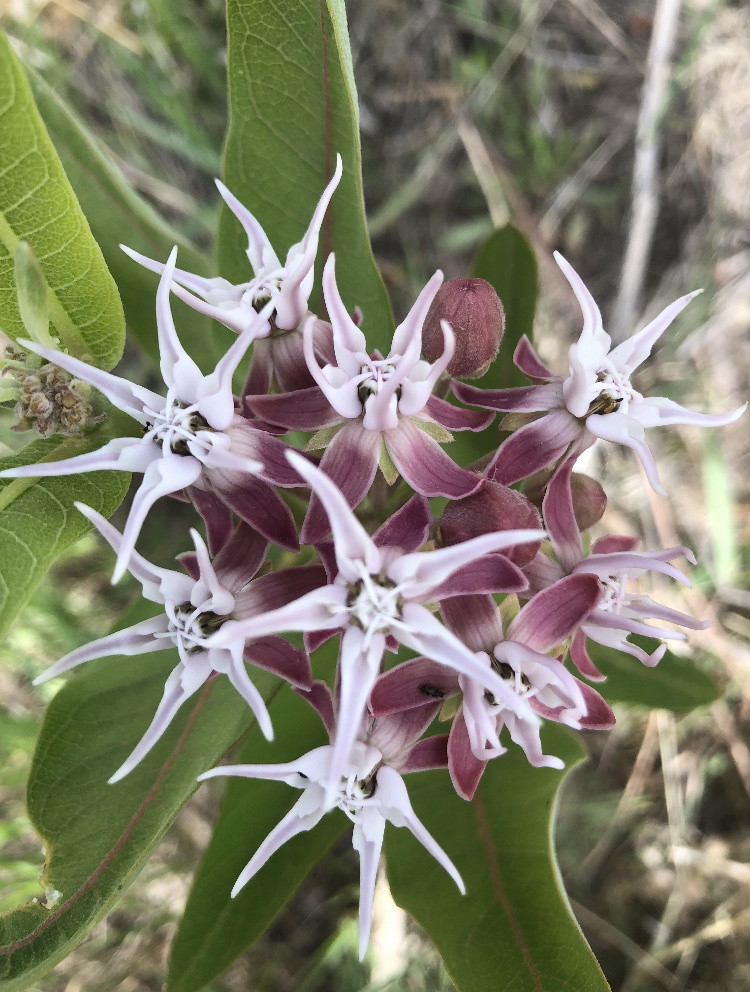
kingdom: Plantae
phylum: Tracheophyta
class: Magnoliopsida
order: Gentianales
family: Apocynaceae
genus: Asclepias
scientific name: Asclepias speciosa
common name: Showy milkweed
